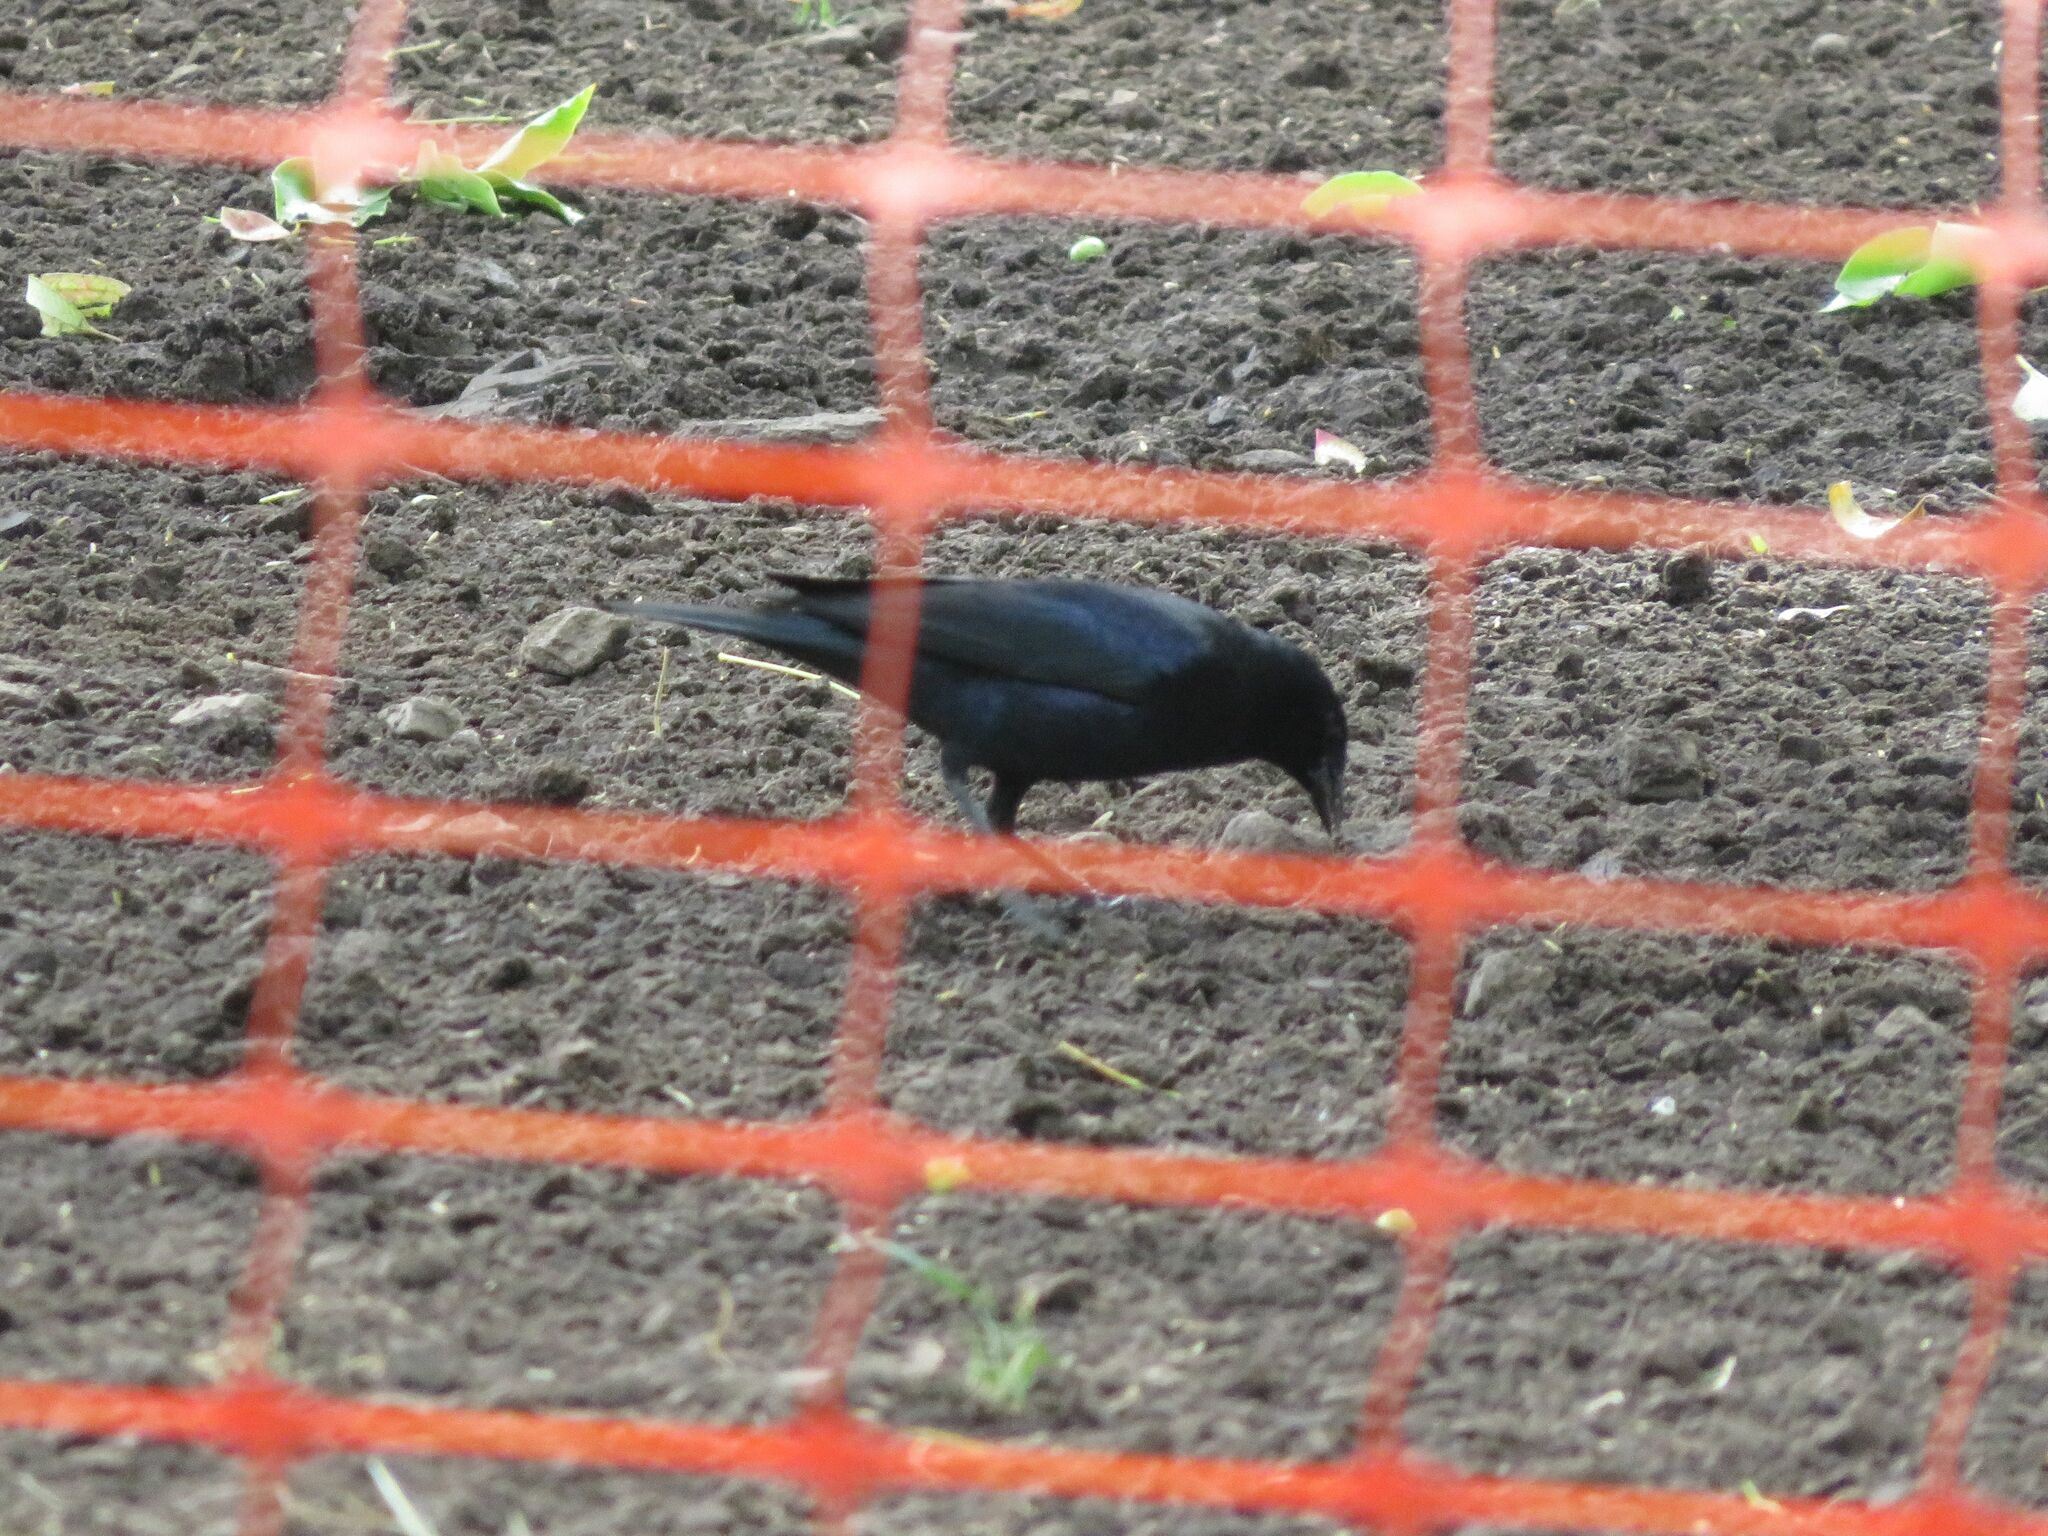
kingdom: Animalia
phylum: Chordata
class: Aves
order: Passeriformes
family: Icteridae
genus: Molothrus
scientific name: Molothrus bonariensis
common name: Shiny cowbird
